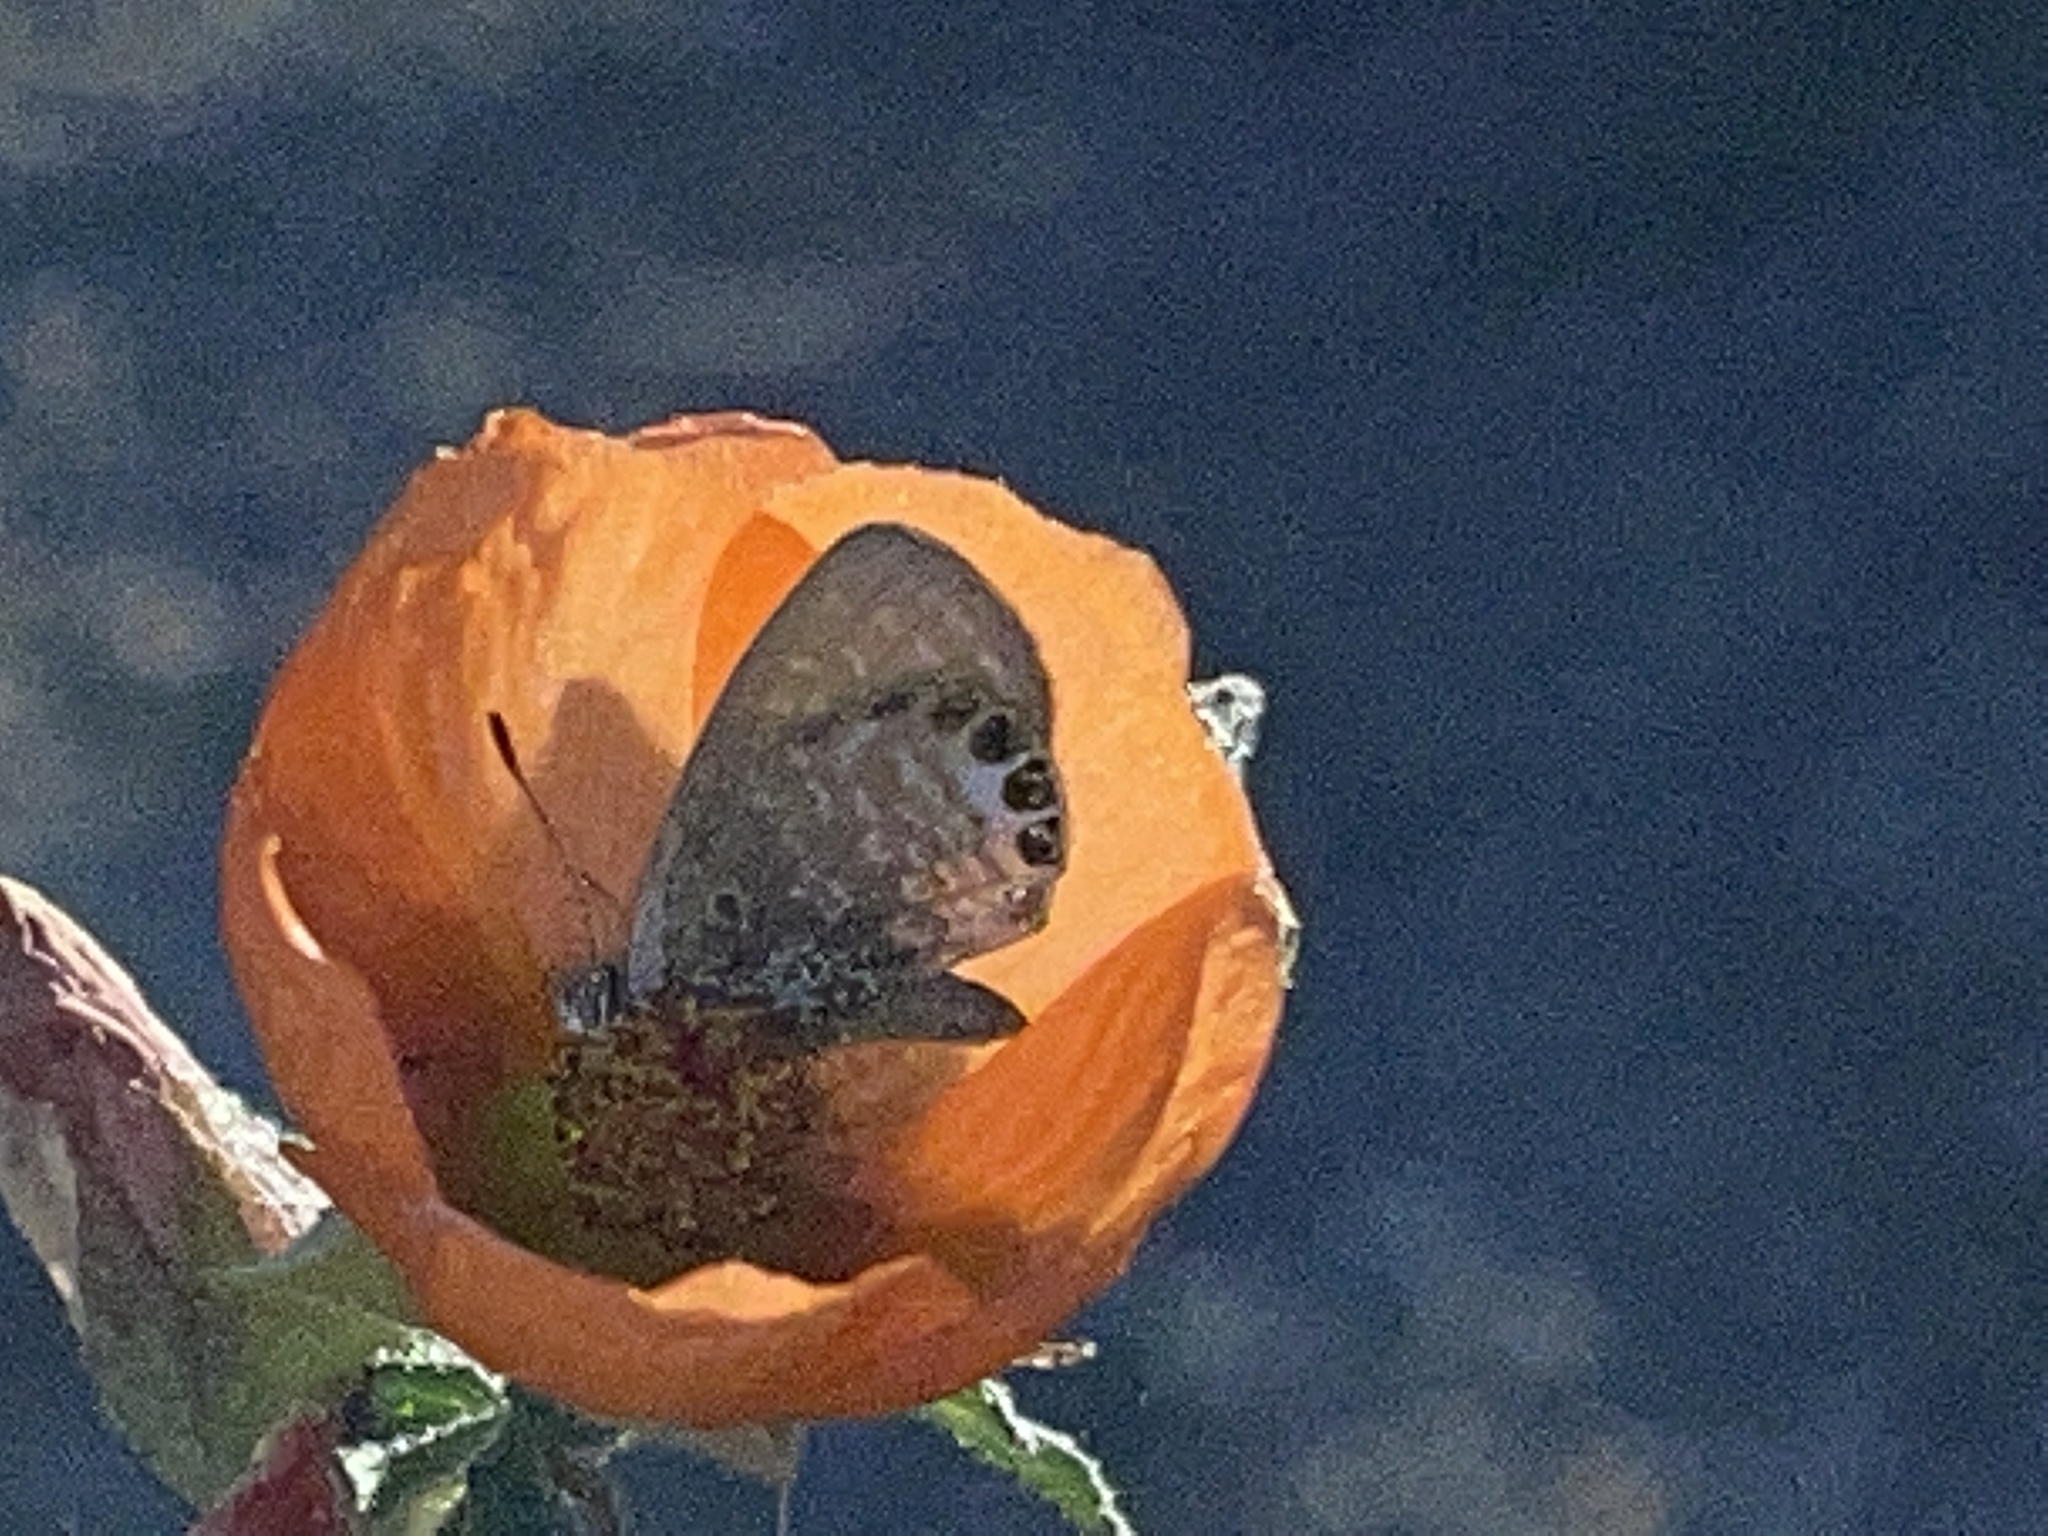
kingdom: Animalia
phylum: Arthropoda
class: Insecta
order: Lepidoptera
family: Lycaenidae
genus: Brephidium
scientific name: Brephidium exilis
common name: Pygmy blue
